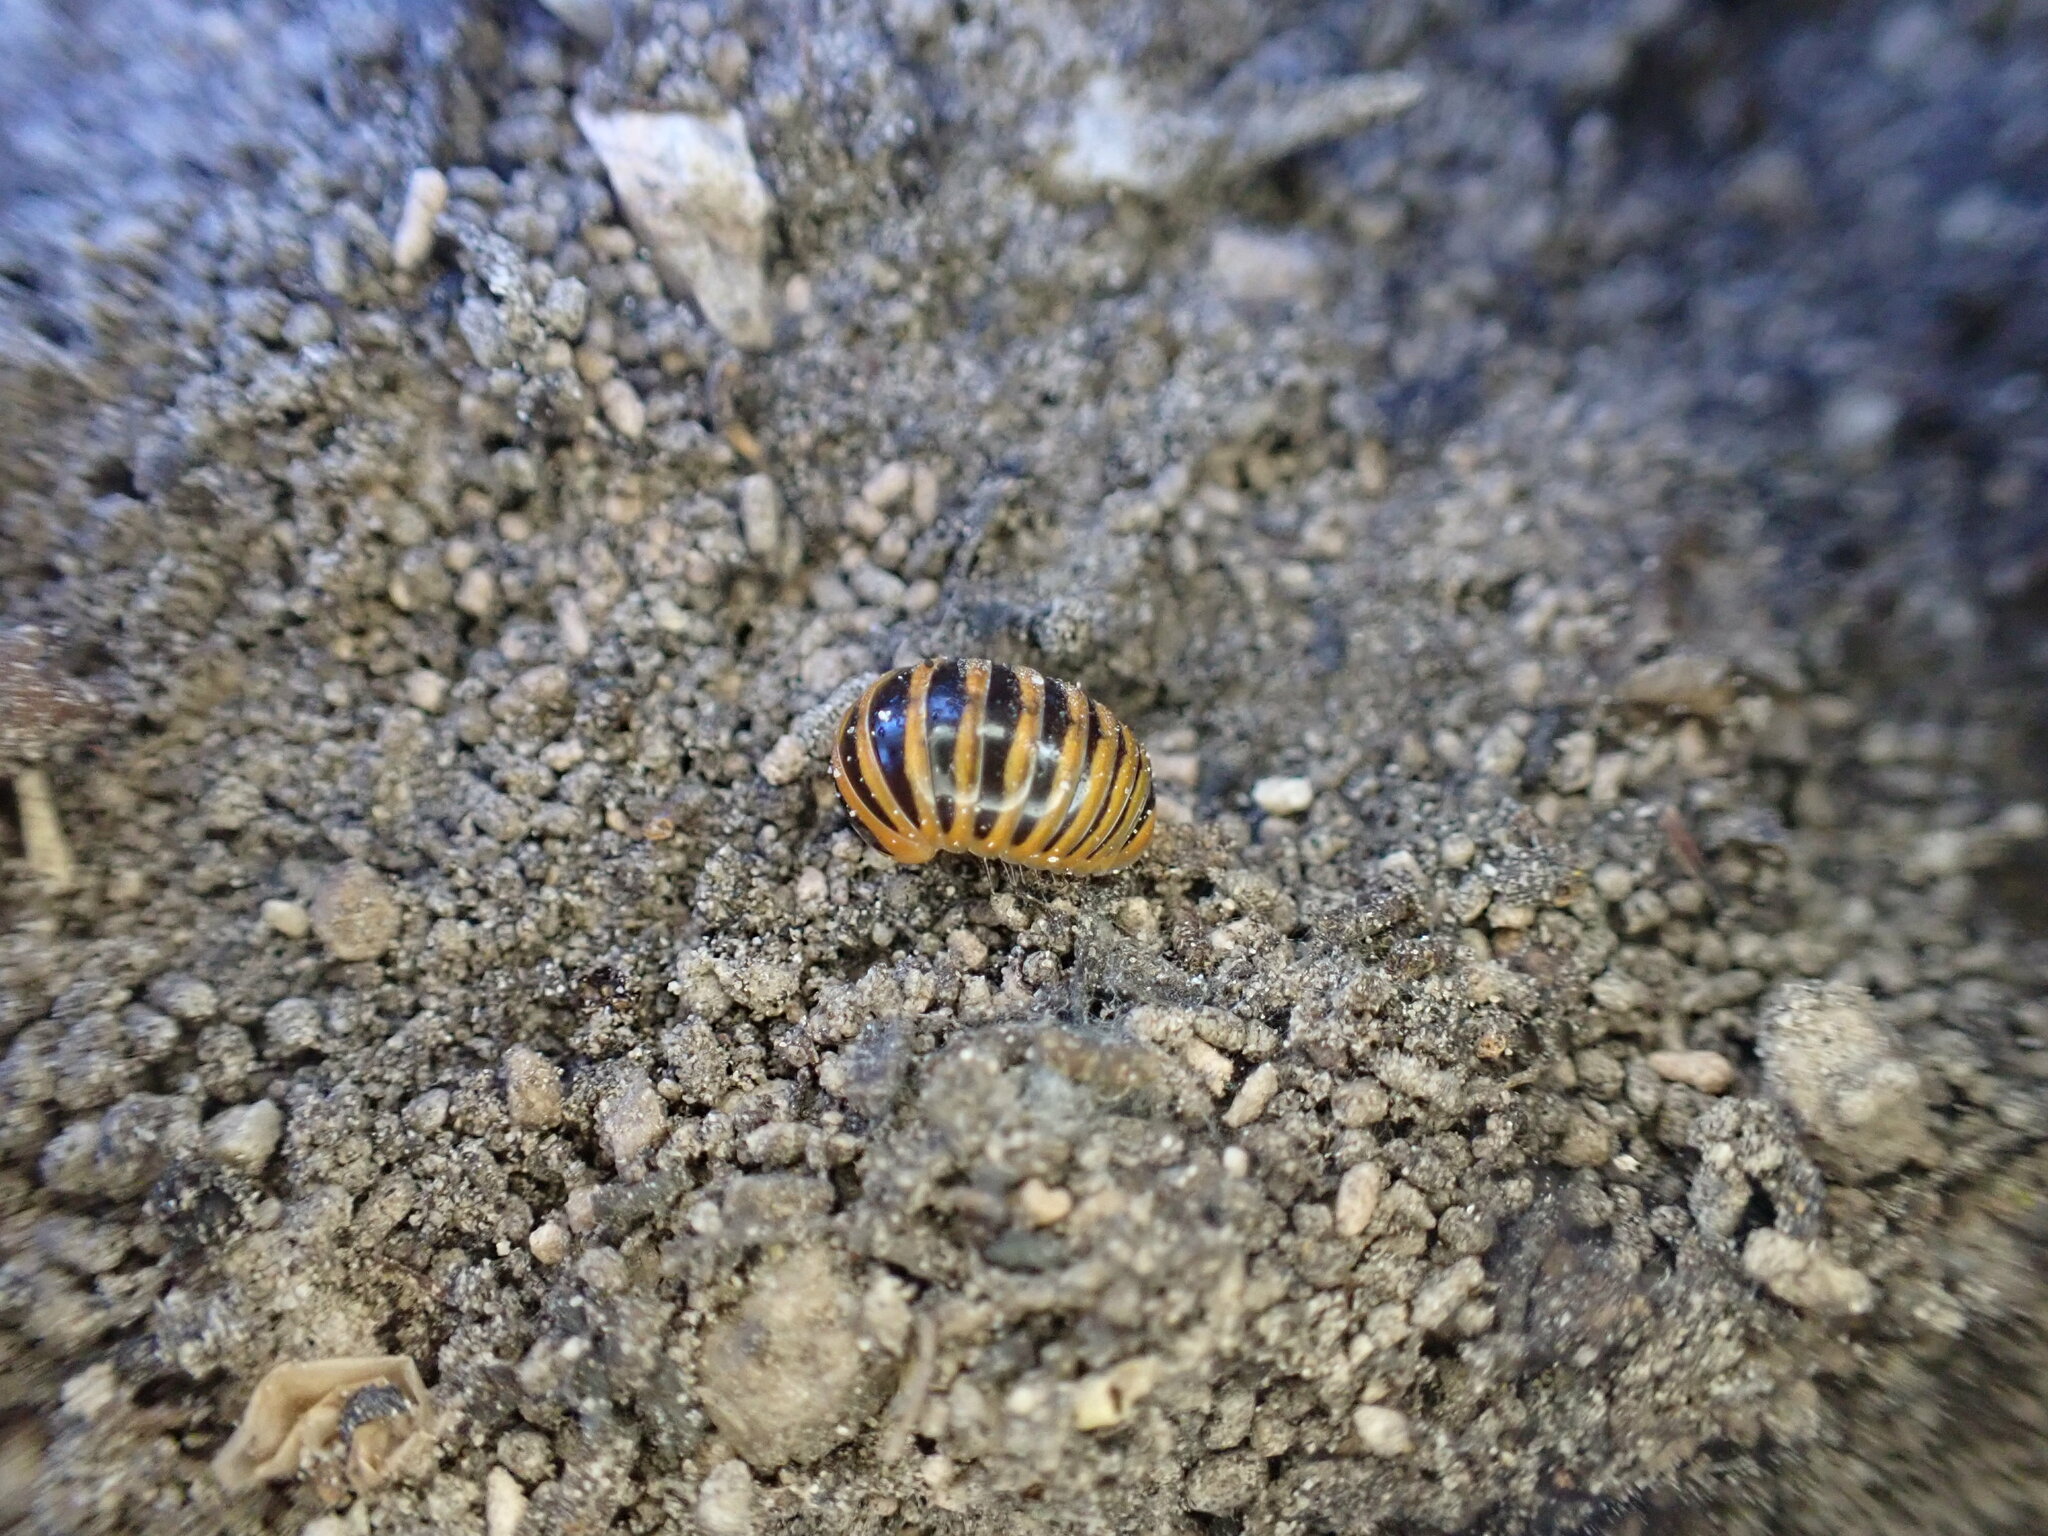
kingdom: Animalia
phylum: Arthropoda
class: Diplopoda
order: Glomerida
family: Glomeridae
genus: Glomeris
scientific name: Glomeris annulata
